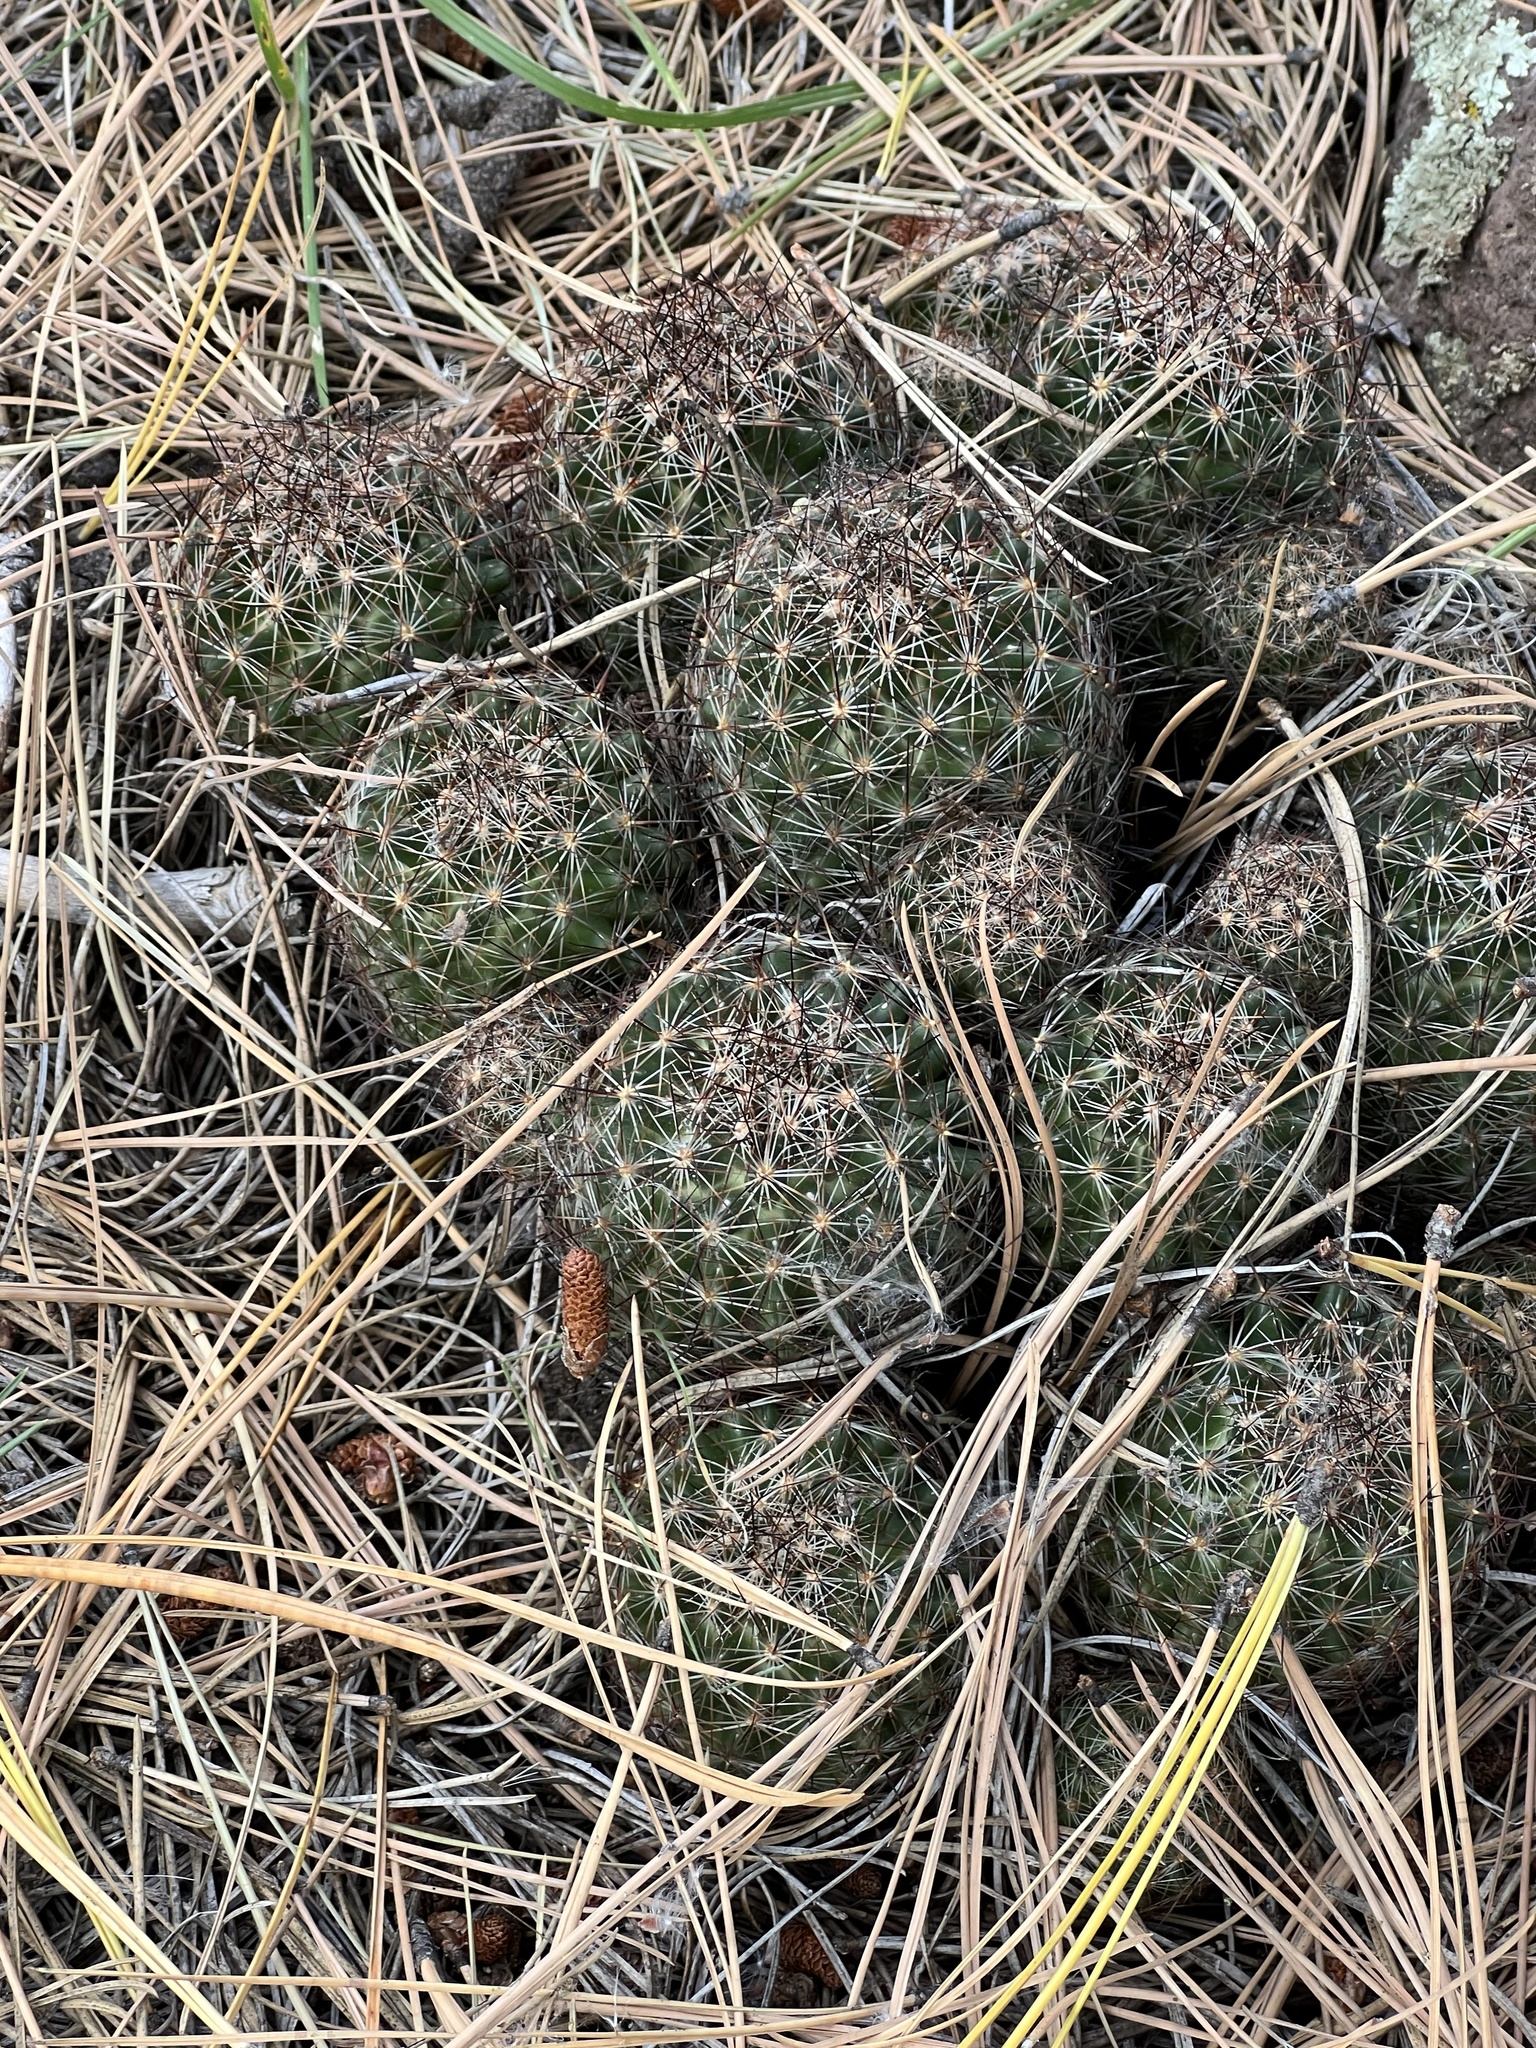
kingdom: Plantae
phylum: Tracheophyta
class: Magnoliopsida
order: Caryophyllales
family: Cactaceae
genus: Pelecyphora
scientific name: Pelecyphora vivipara
